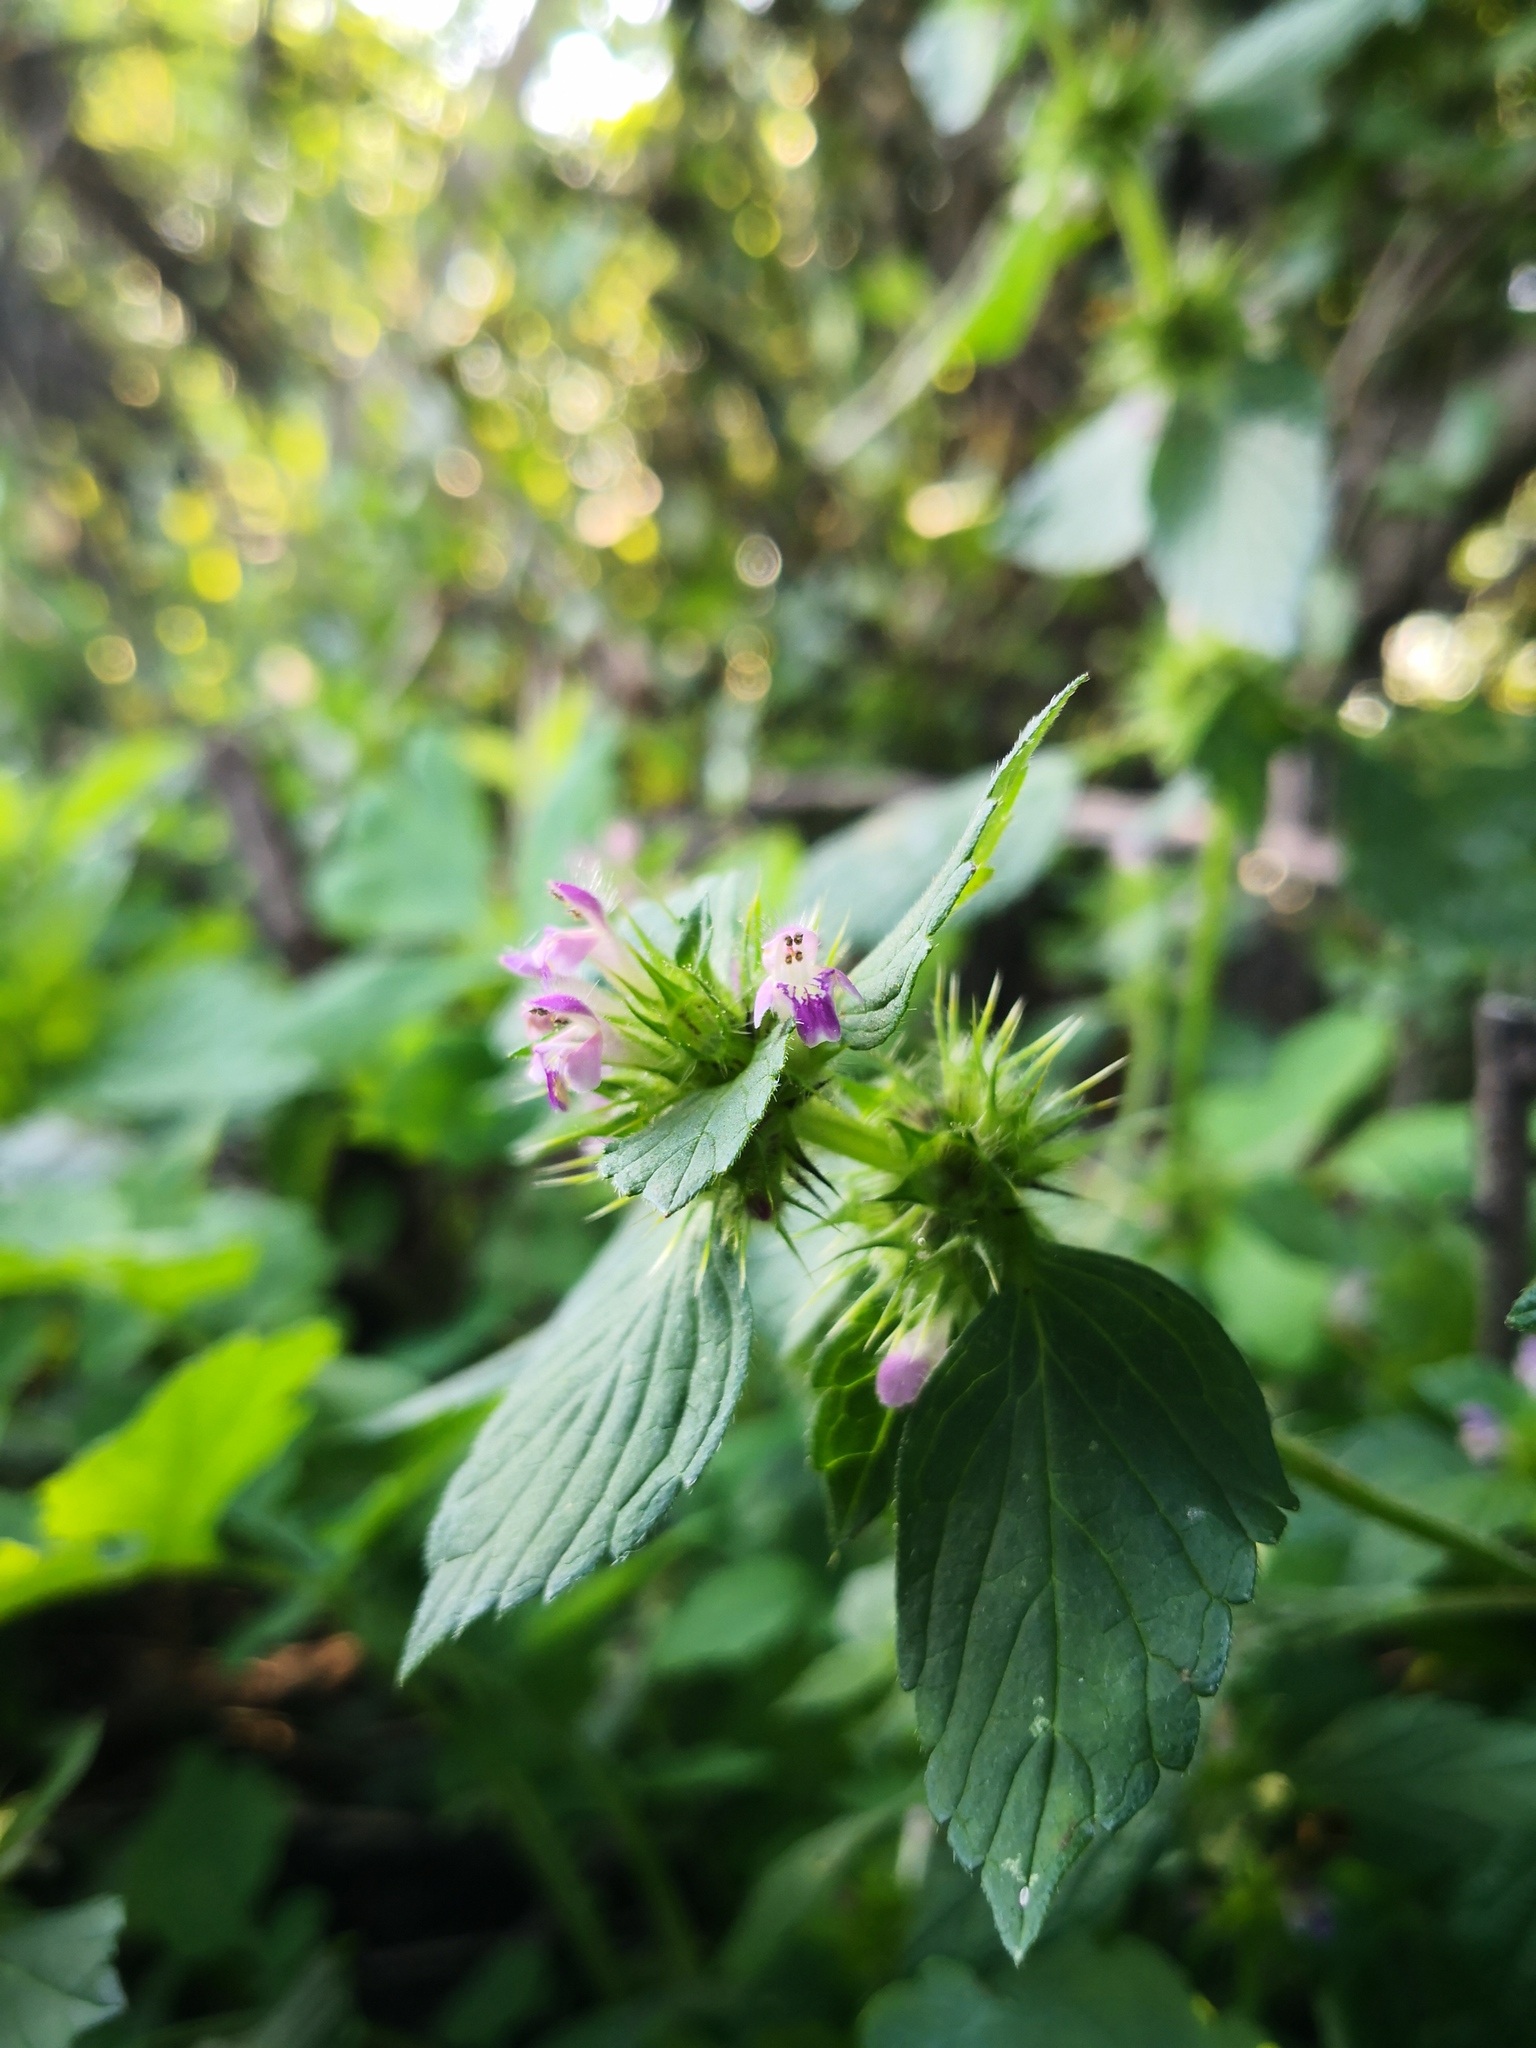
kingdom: Plantae
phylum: Tracheophyta
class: Magnoliopsida
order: Lamiales
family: Lamiaceae
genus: Galeopsis
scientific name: Galeopsis bifida
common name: Bifid hemp-nettle
